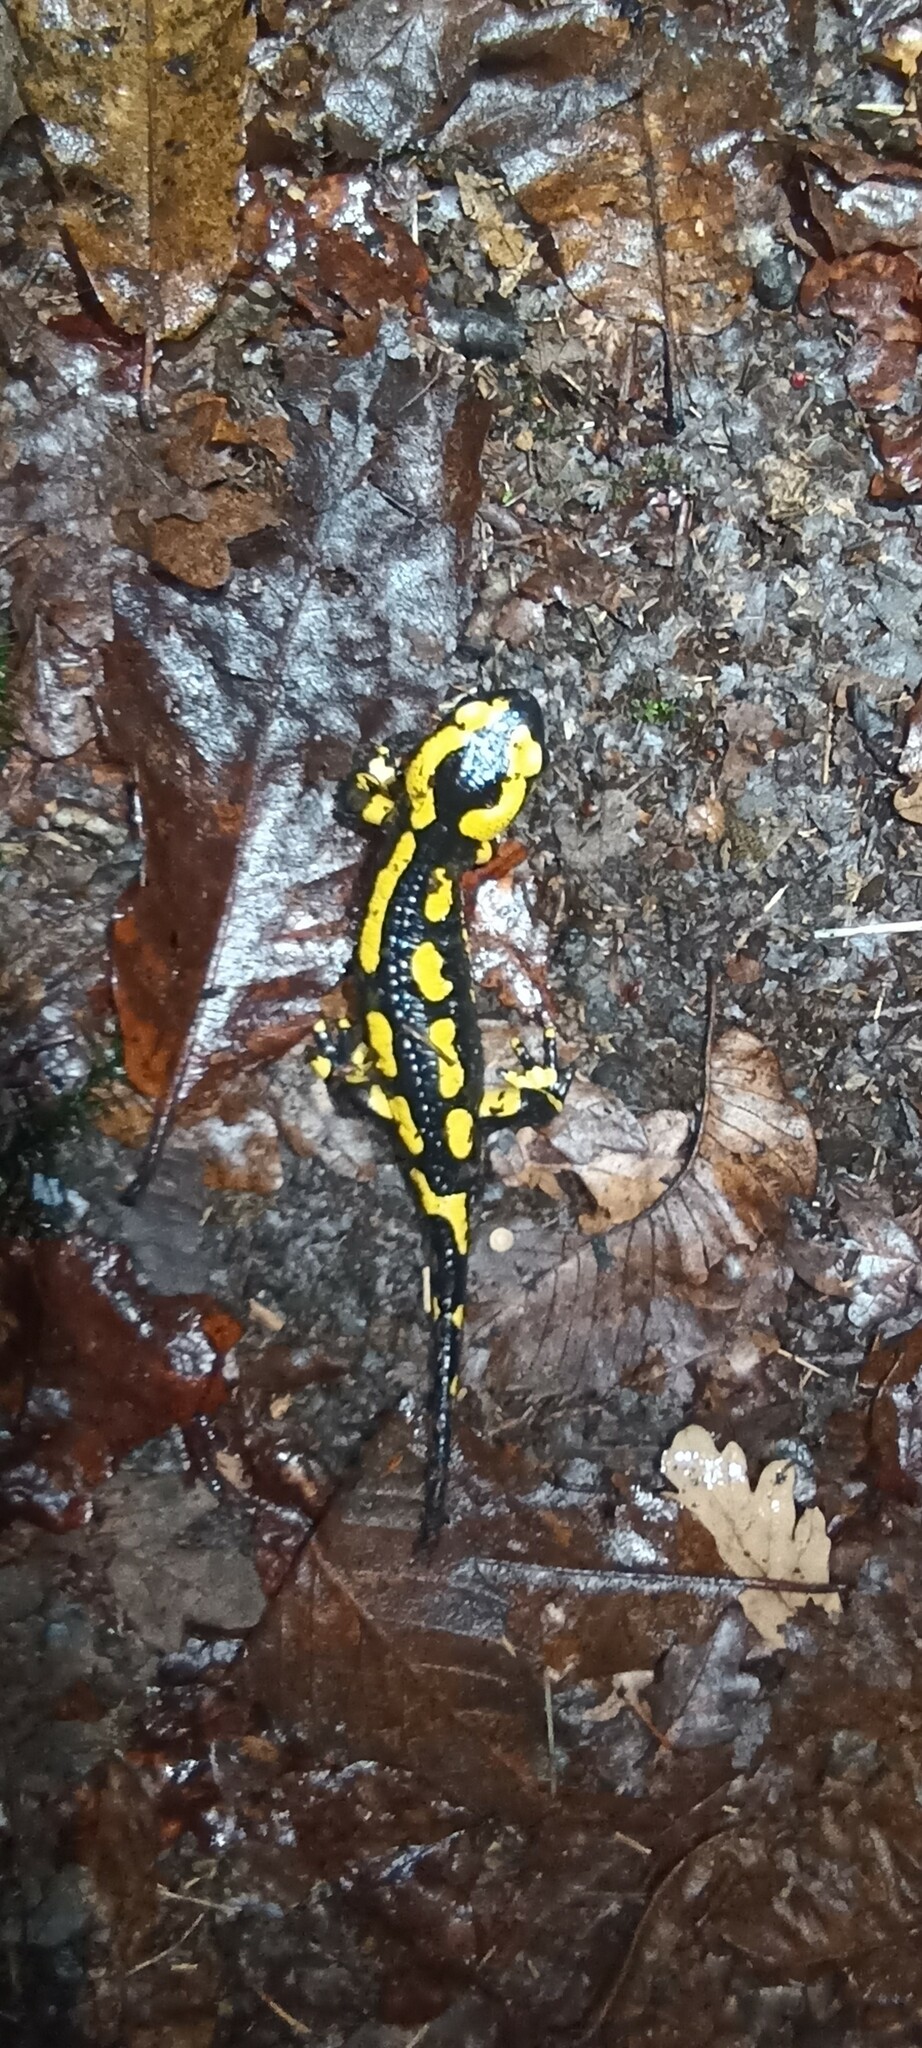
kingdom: Animalia
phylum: Chordata
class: Amphibia
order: Caudata
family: Salamandridae
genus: Salamandra
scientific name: Salamandra salamandra
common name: Fire salamander
